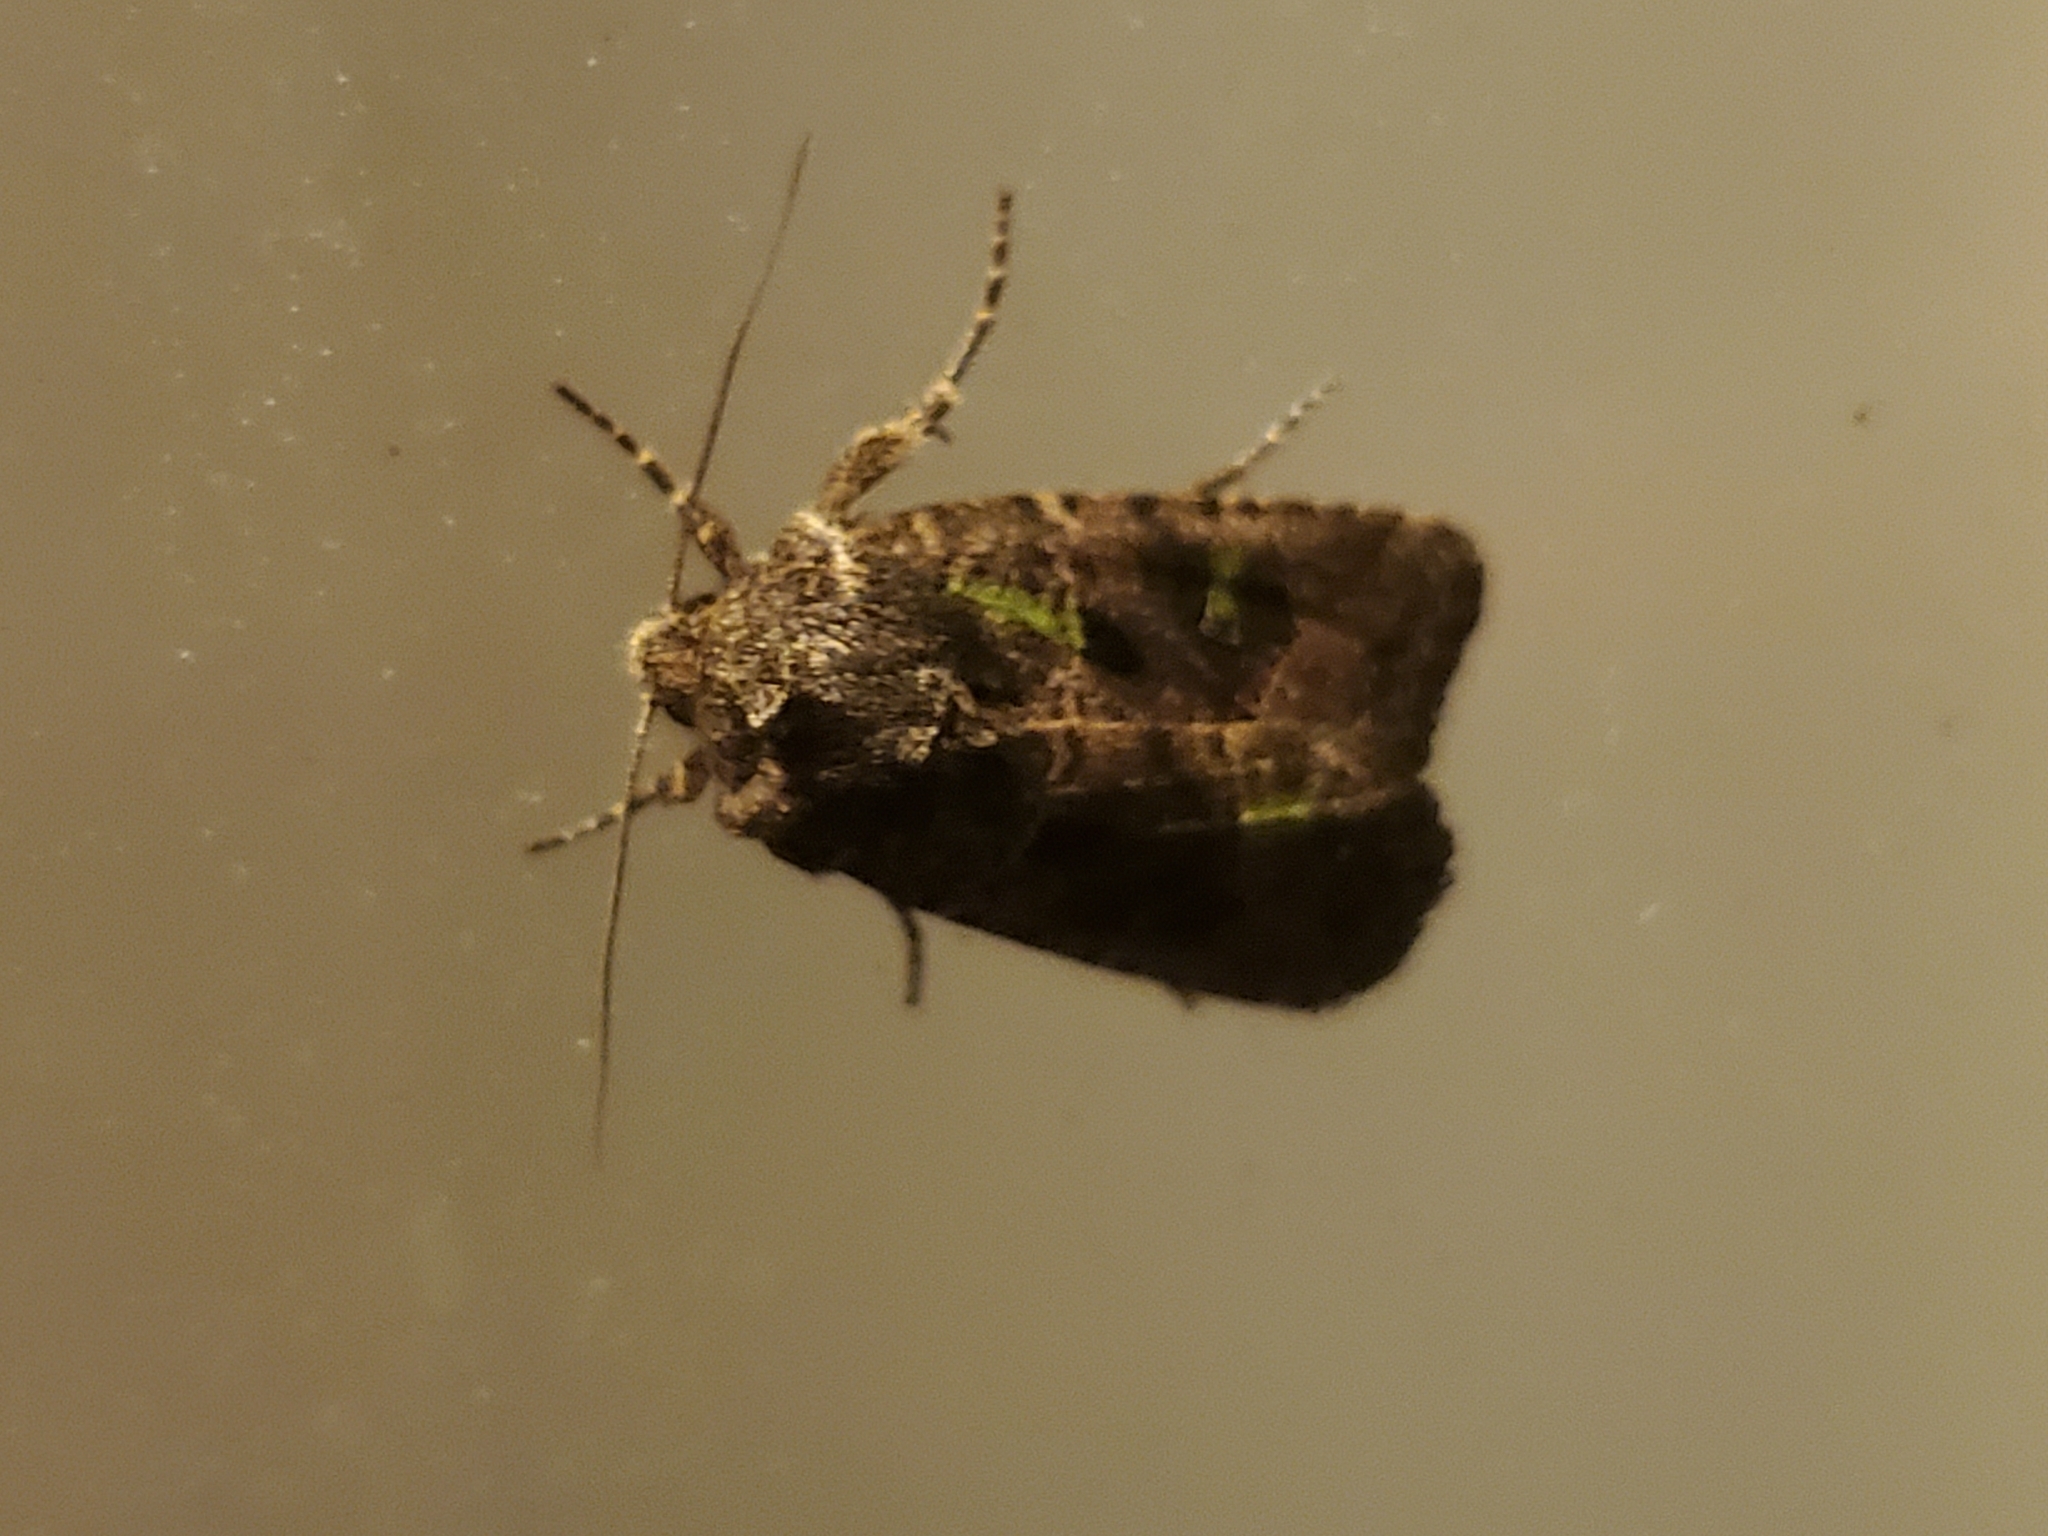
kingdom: Animalia
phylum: Arthropoda
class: Insecta
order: Lepidoptera
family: Noctuidae
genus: Lacinipolia
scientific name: Lacinipolia renigera
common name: Kidney-spotted minor
